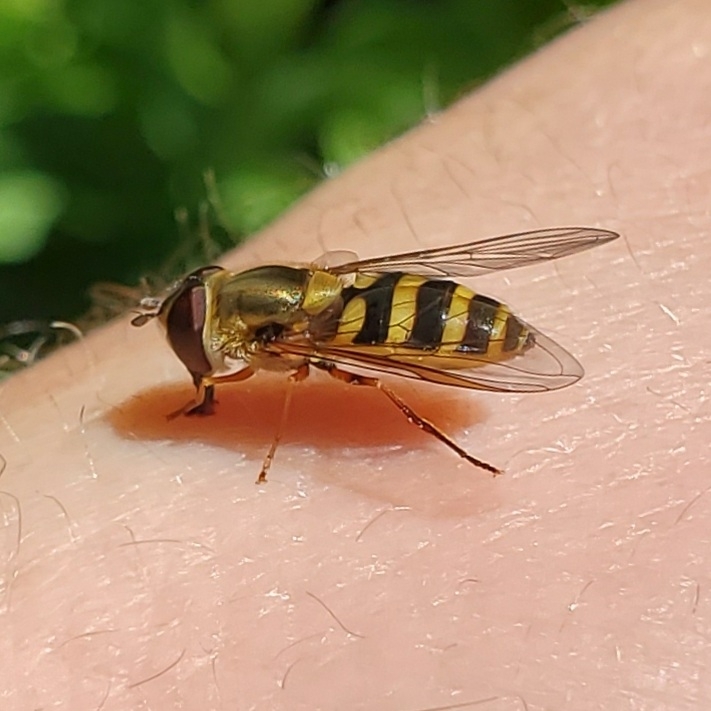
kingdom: Animalia
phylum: Arthropoda
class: Insecta
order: Diptera
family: Syrphidae
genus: Syrphus
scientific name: Syrphus rectus
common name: Yellow-legged flower fly
